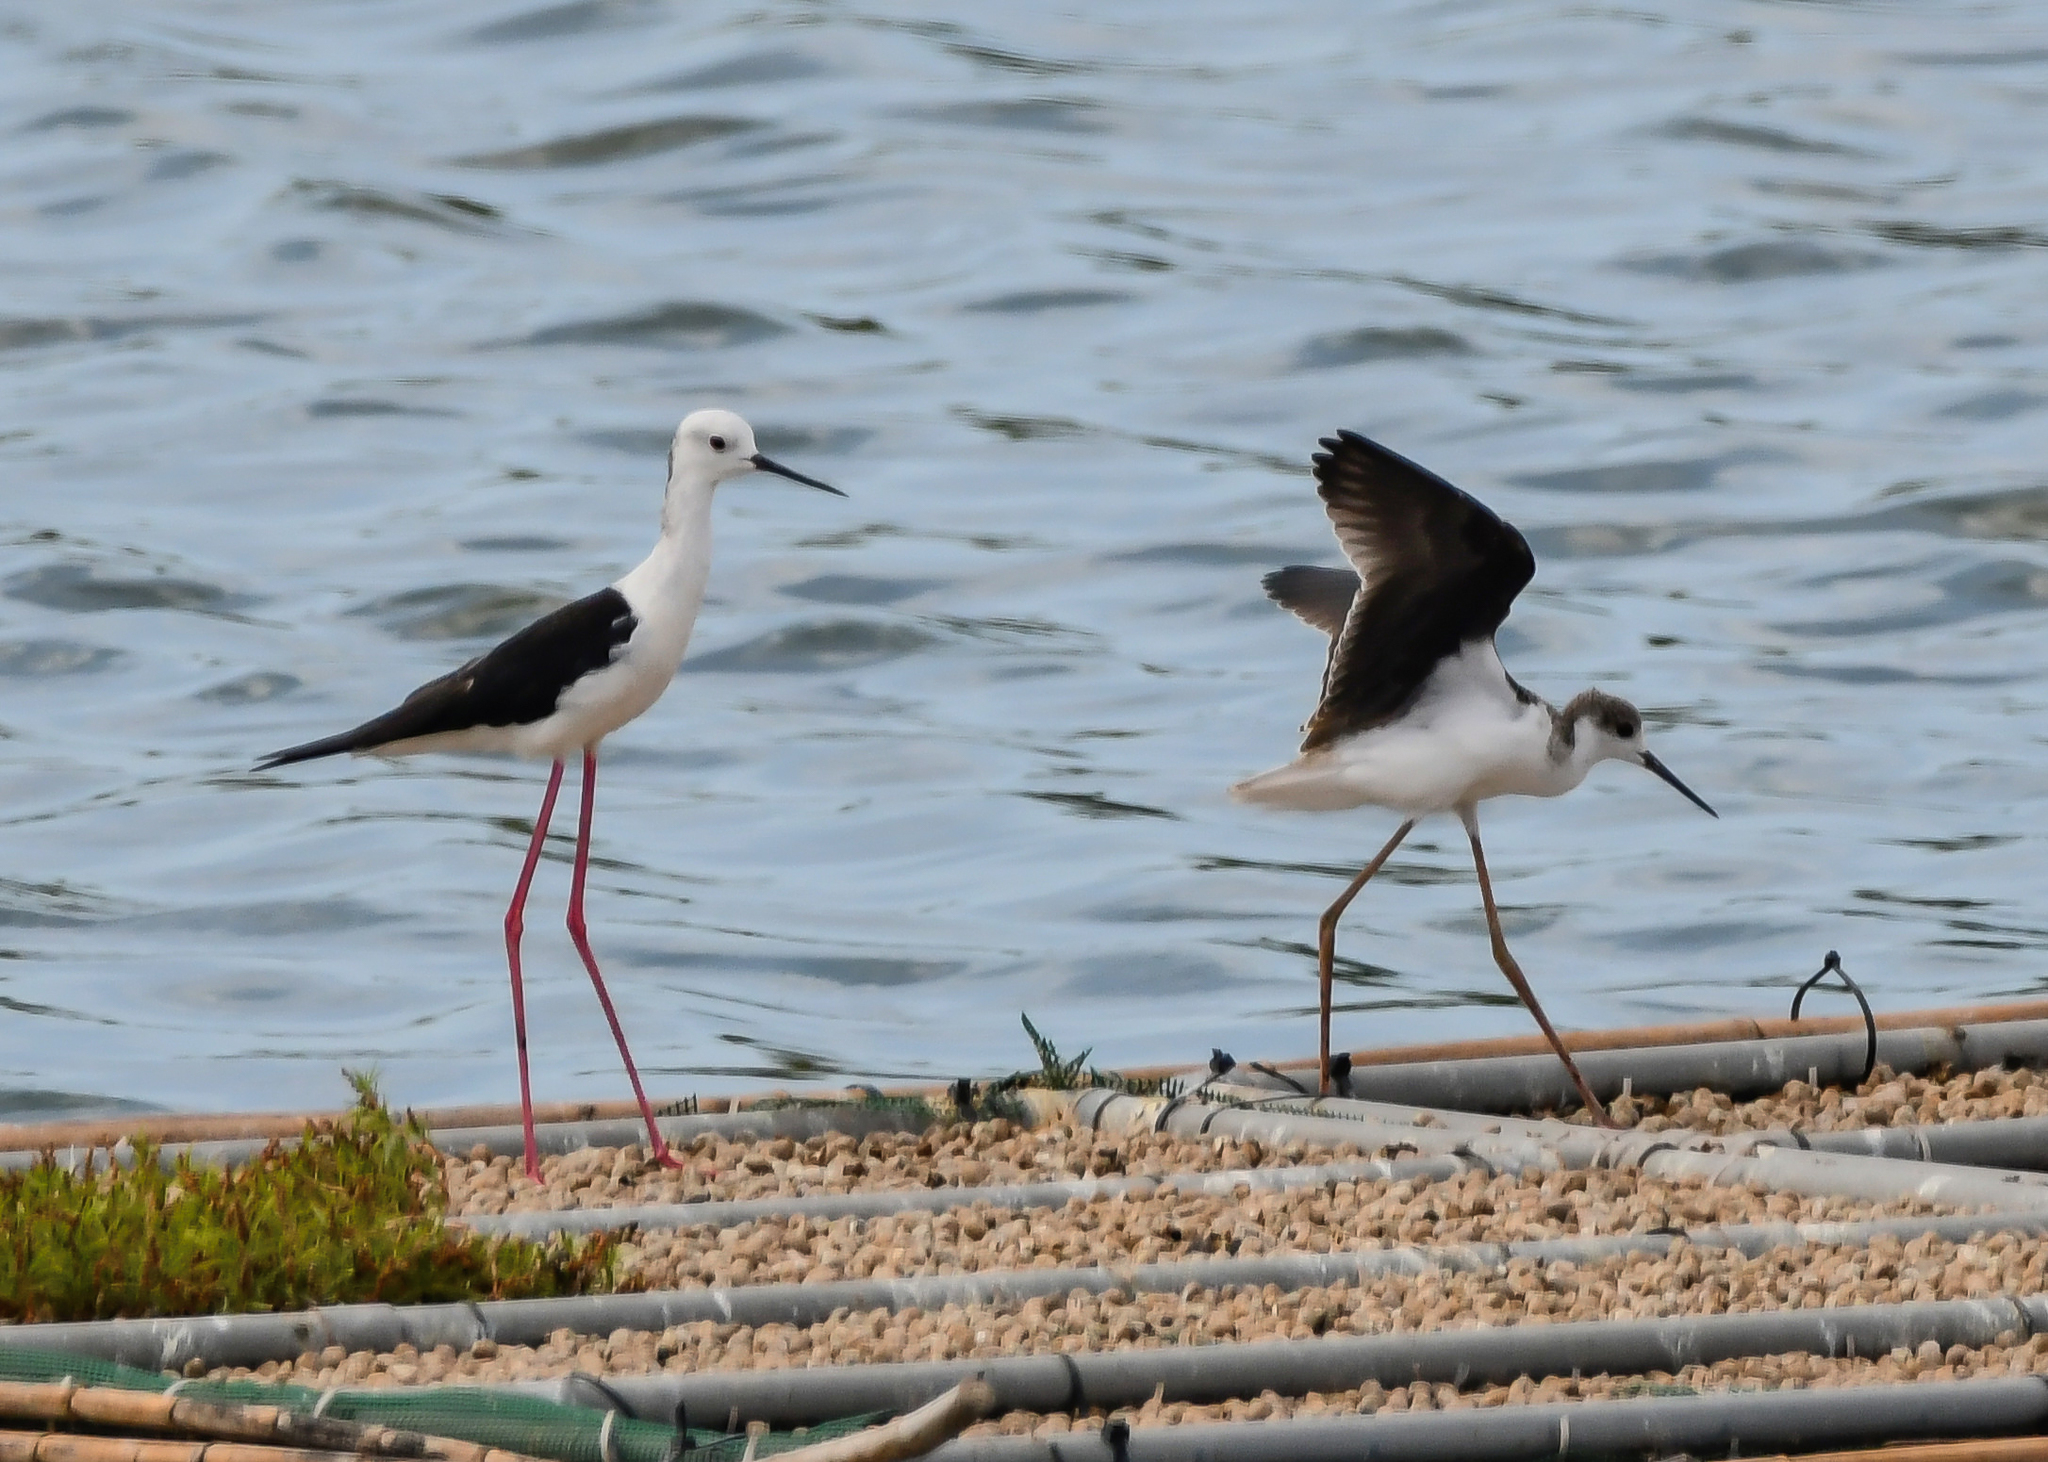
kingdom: Animalia
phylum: Chordata
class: Aves
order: Charadriiformes
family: Recurvirostridae
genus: Himantopus
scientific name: Himantopus himantopus
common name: Black-winged stilt
